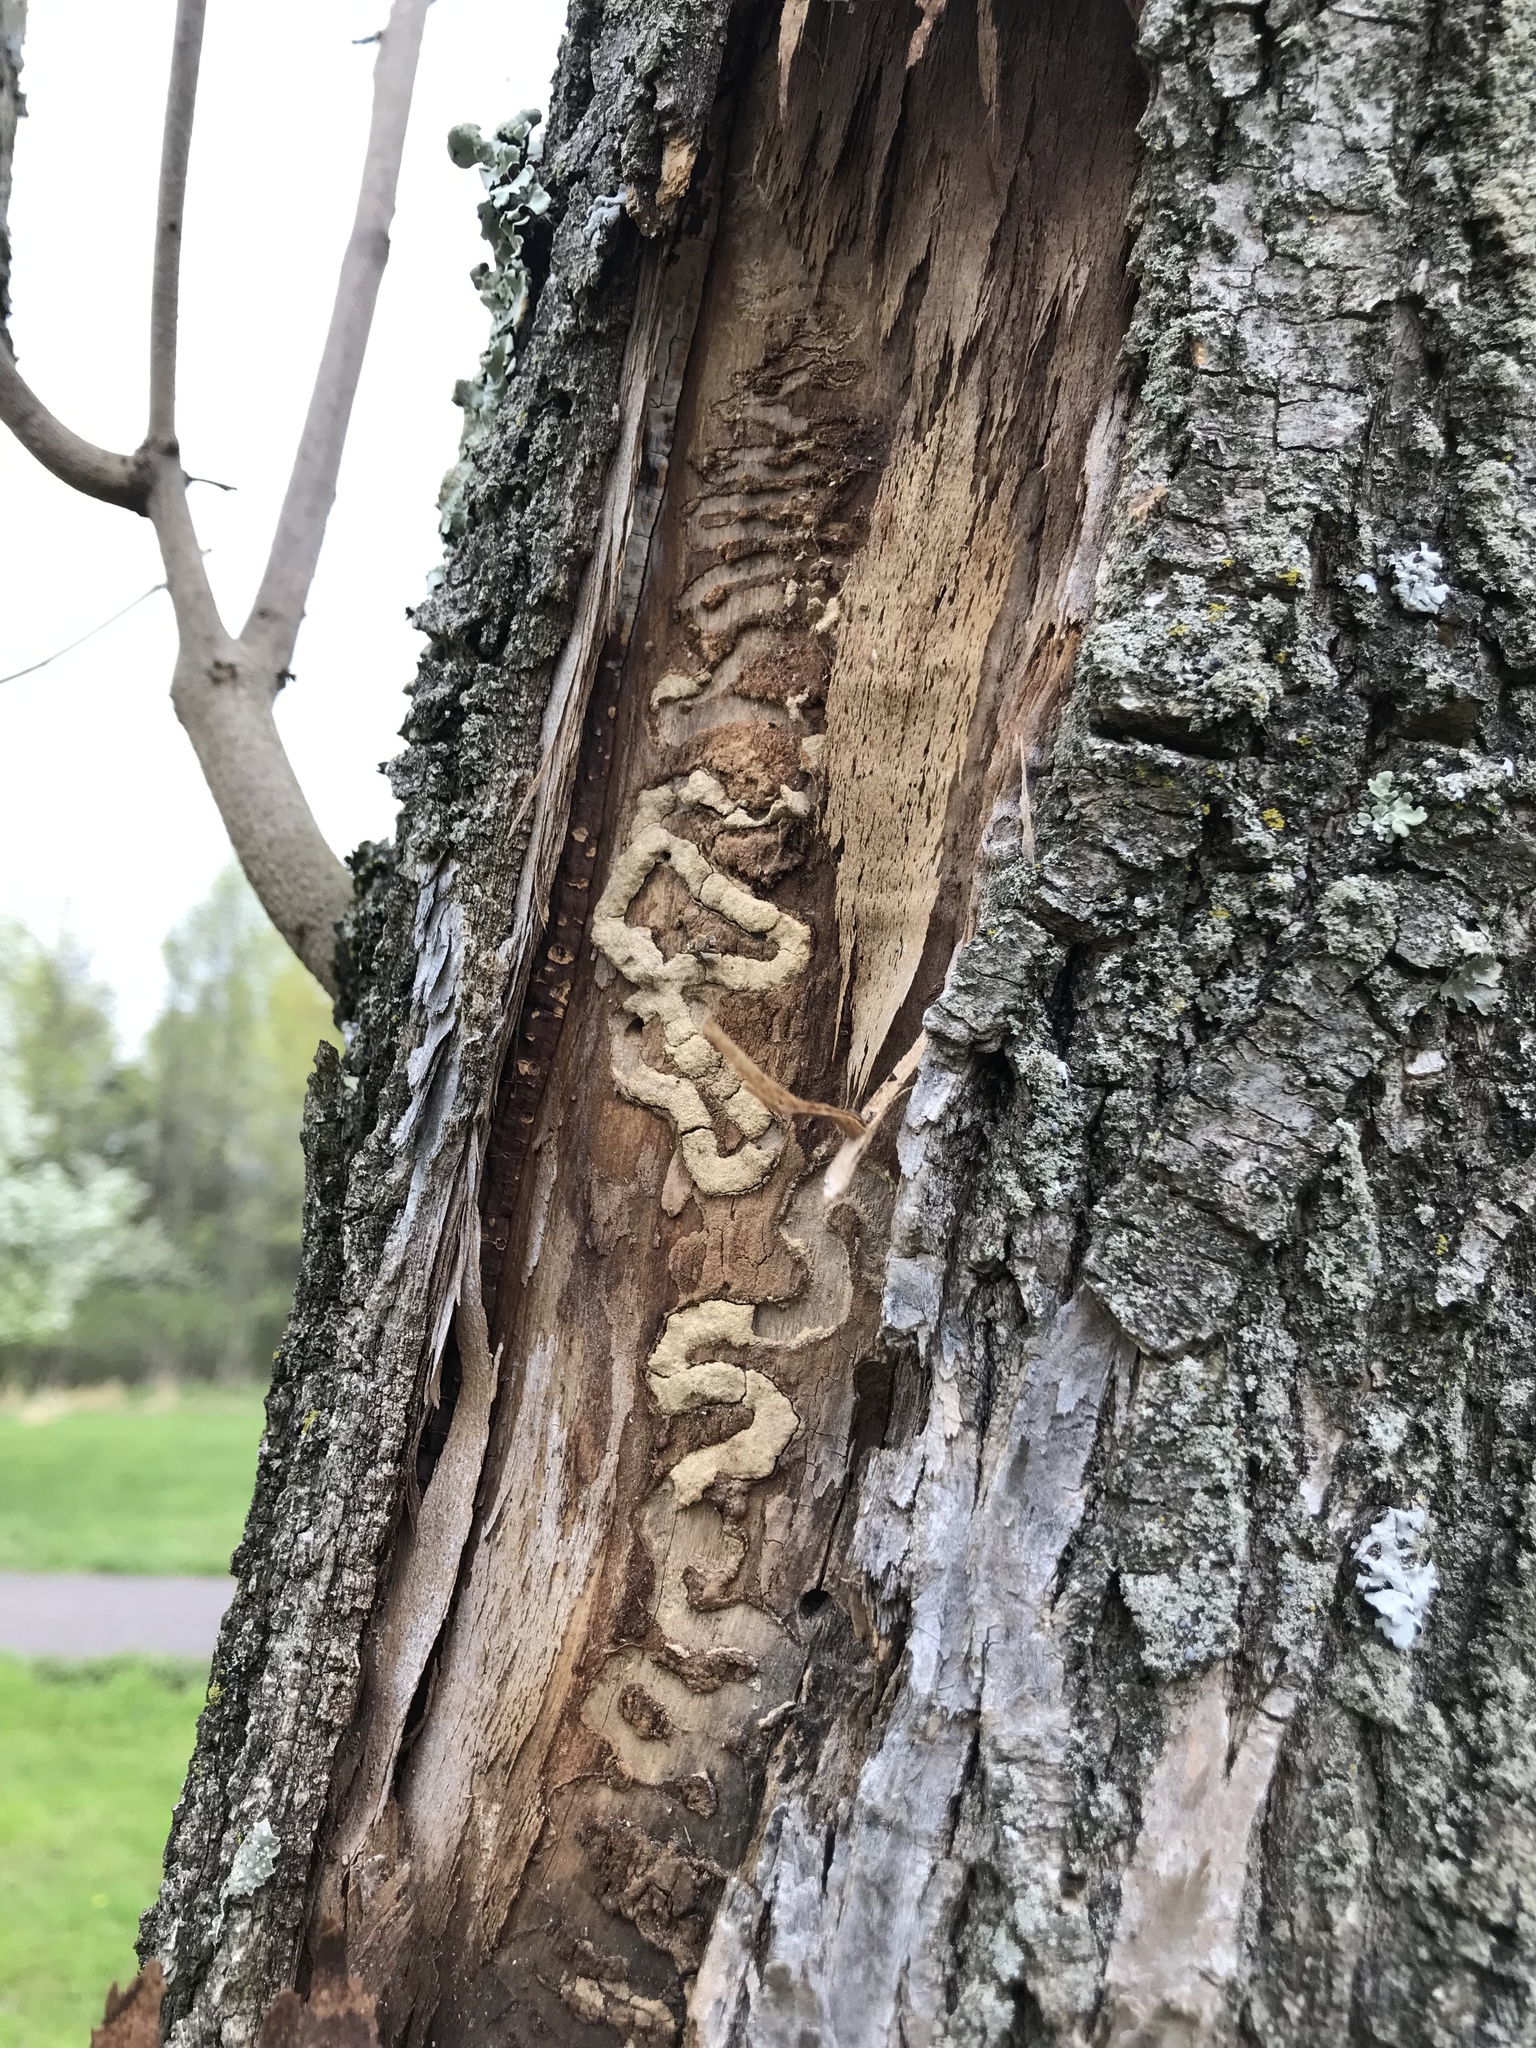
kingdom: Animalia
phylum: Arthropoda
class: Insecta
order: Coleoptera
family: Buprestidae
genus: Agrilus
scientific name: Agrilus planipennis
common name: Emerald ash borer
